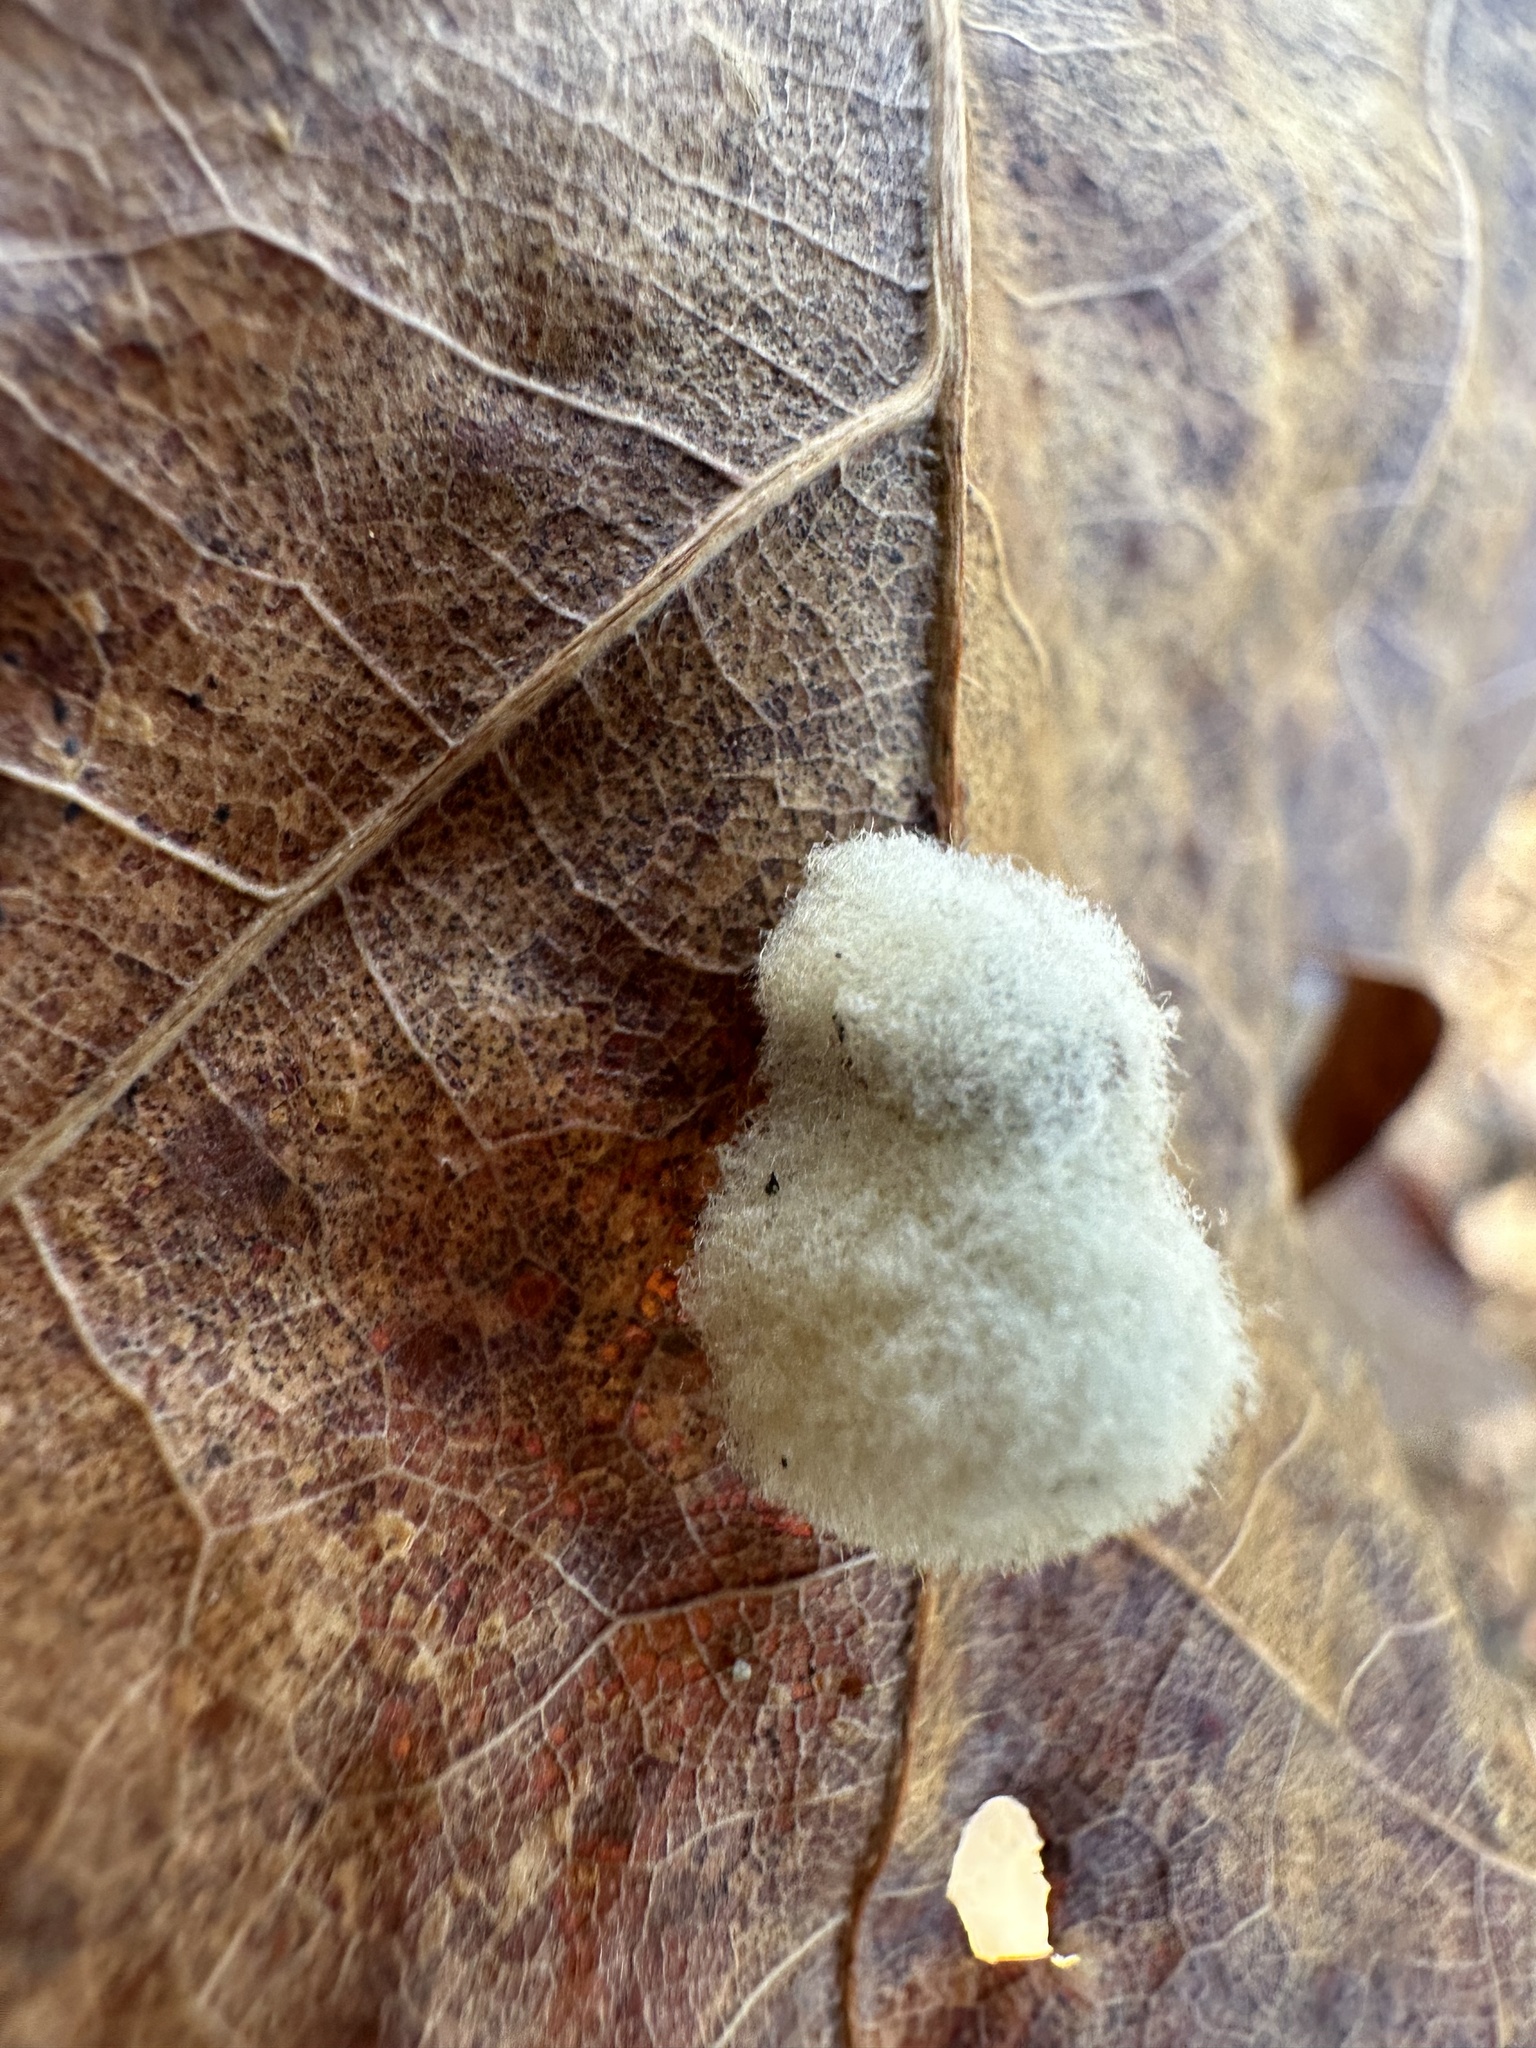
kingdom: Animalia
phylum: Arthropoda
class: Insecta
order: Hymenoptera
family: Cynipidae
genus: Callirhytis
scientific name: Callirhytis
